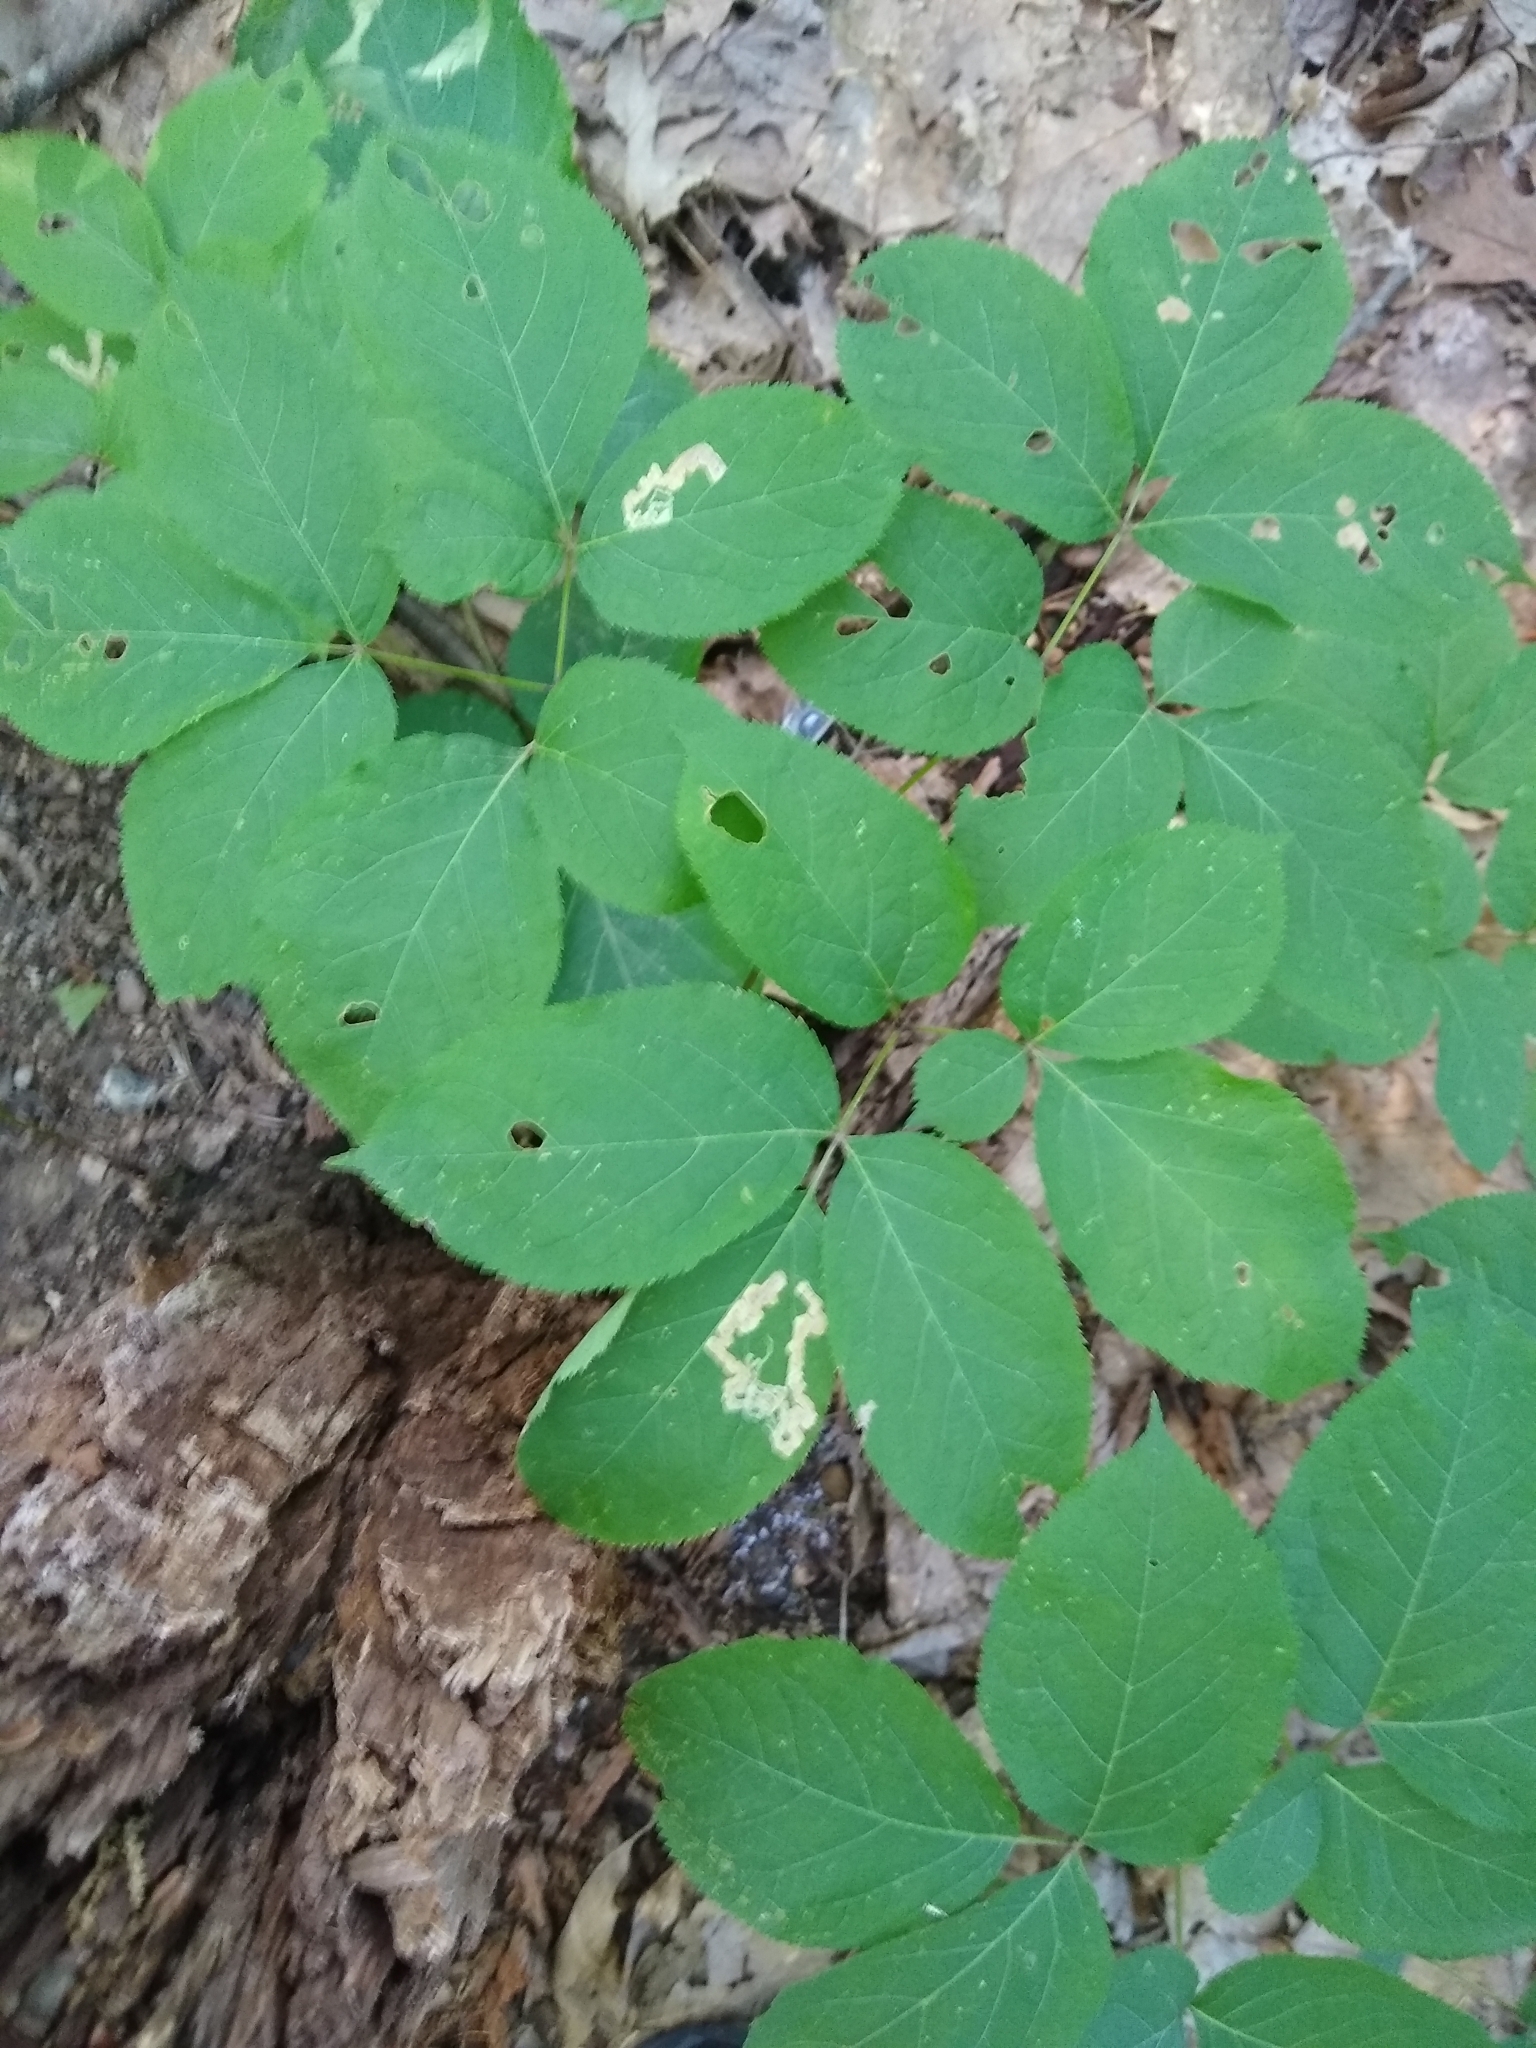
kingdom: Animalia
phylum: Arthropoda
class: Insecta
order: Diptera
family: Agromyzidae
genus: Phytomyza
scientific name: Phytomyza aralivora
